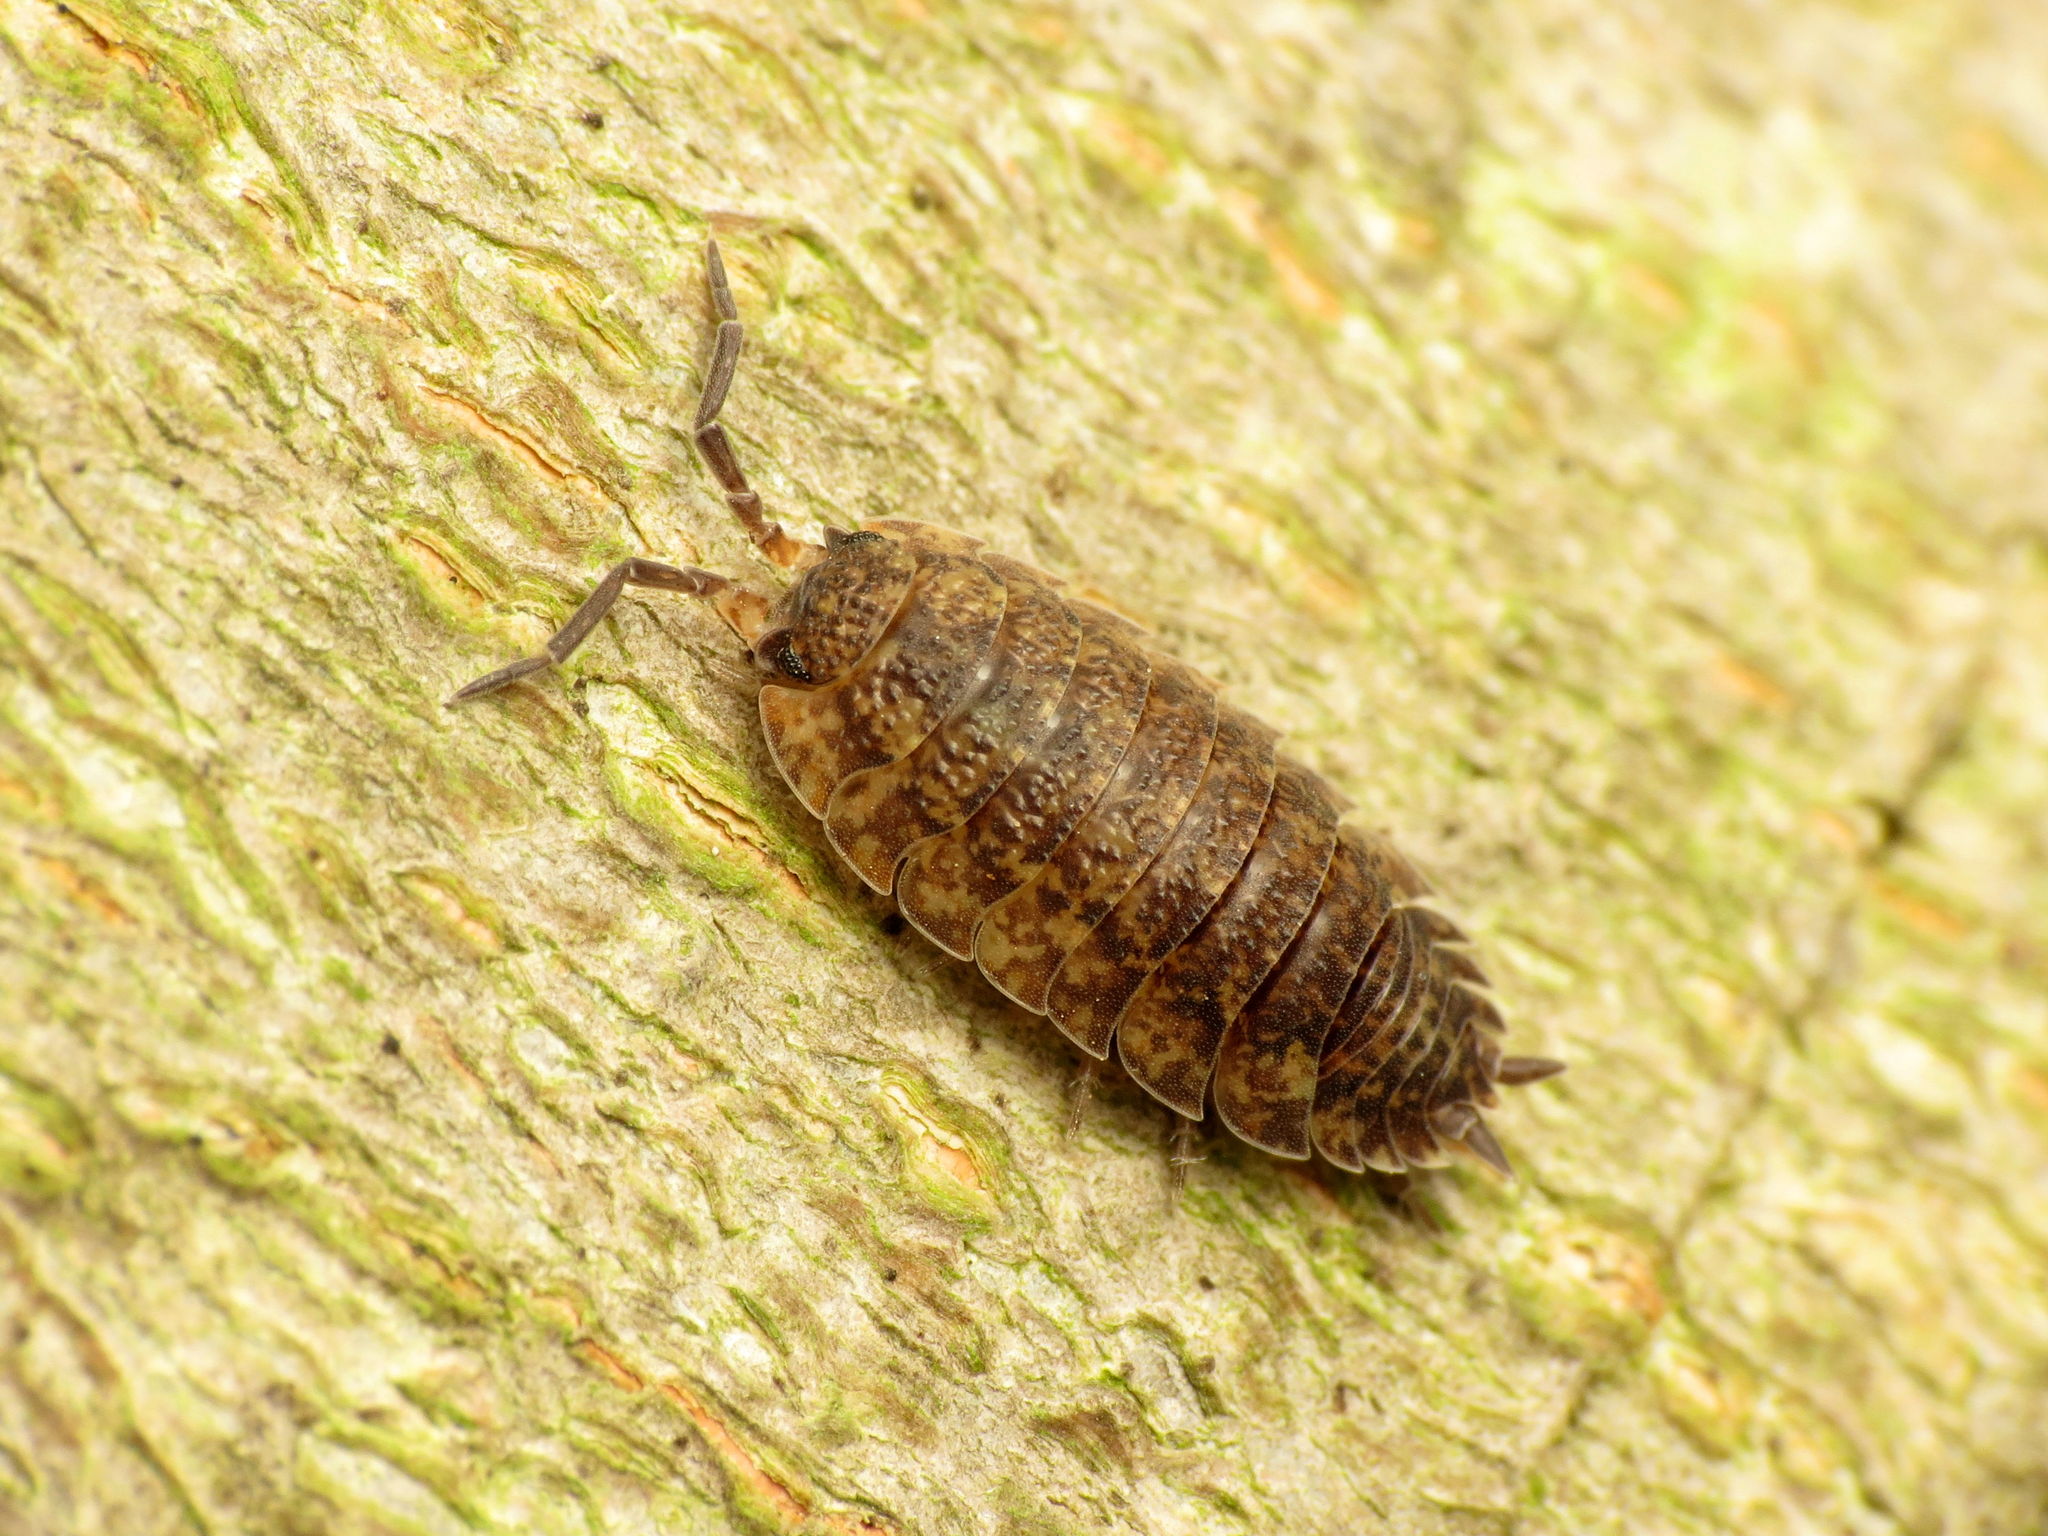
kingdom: Animalia
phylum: Arthropoda
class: Malacostraca
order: Isopoda
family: Porcellionidae
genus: Porcellio
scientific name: Porcellio scaber
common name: Common rough woodlouse
